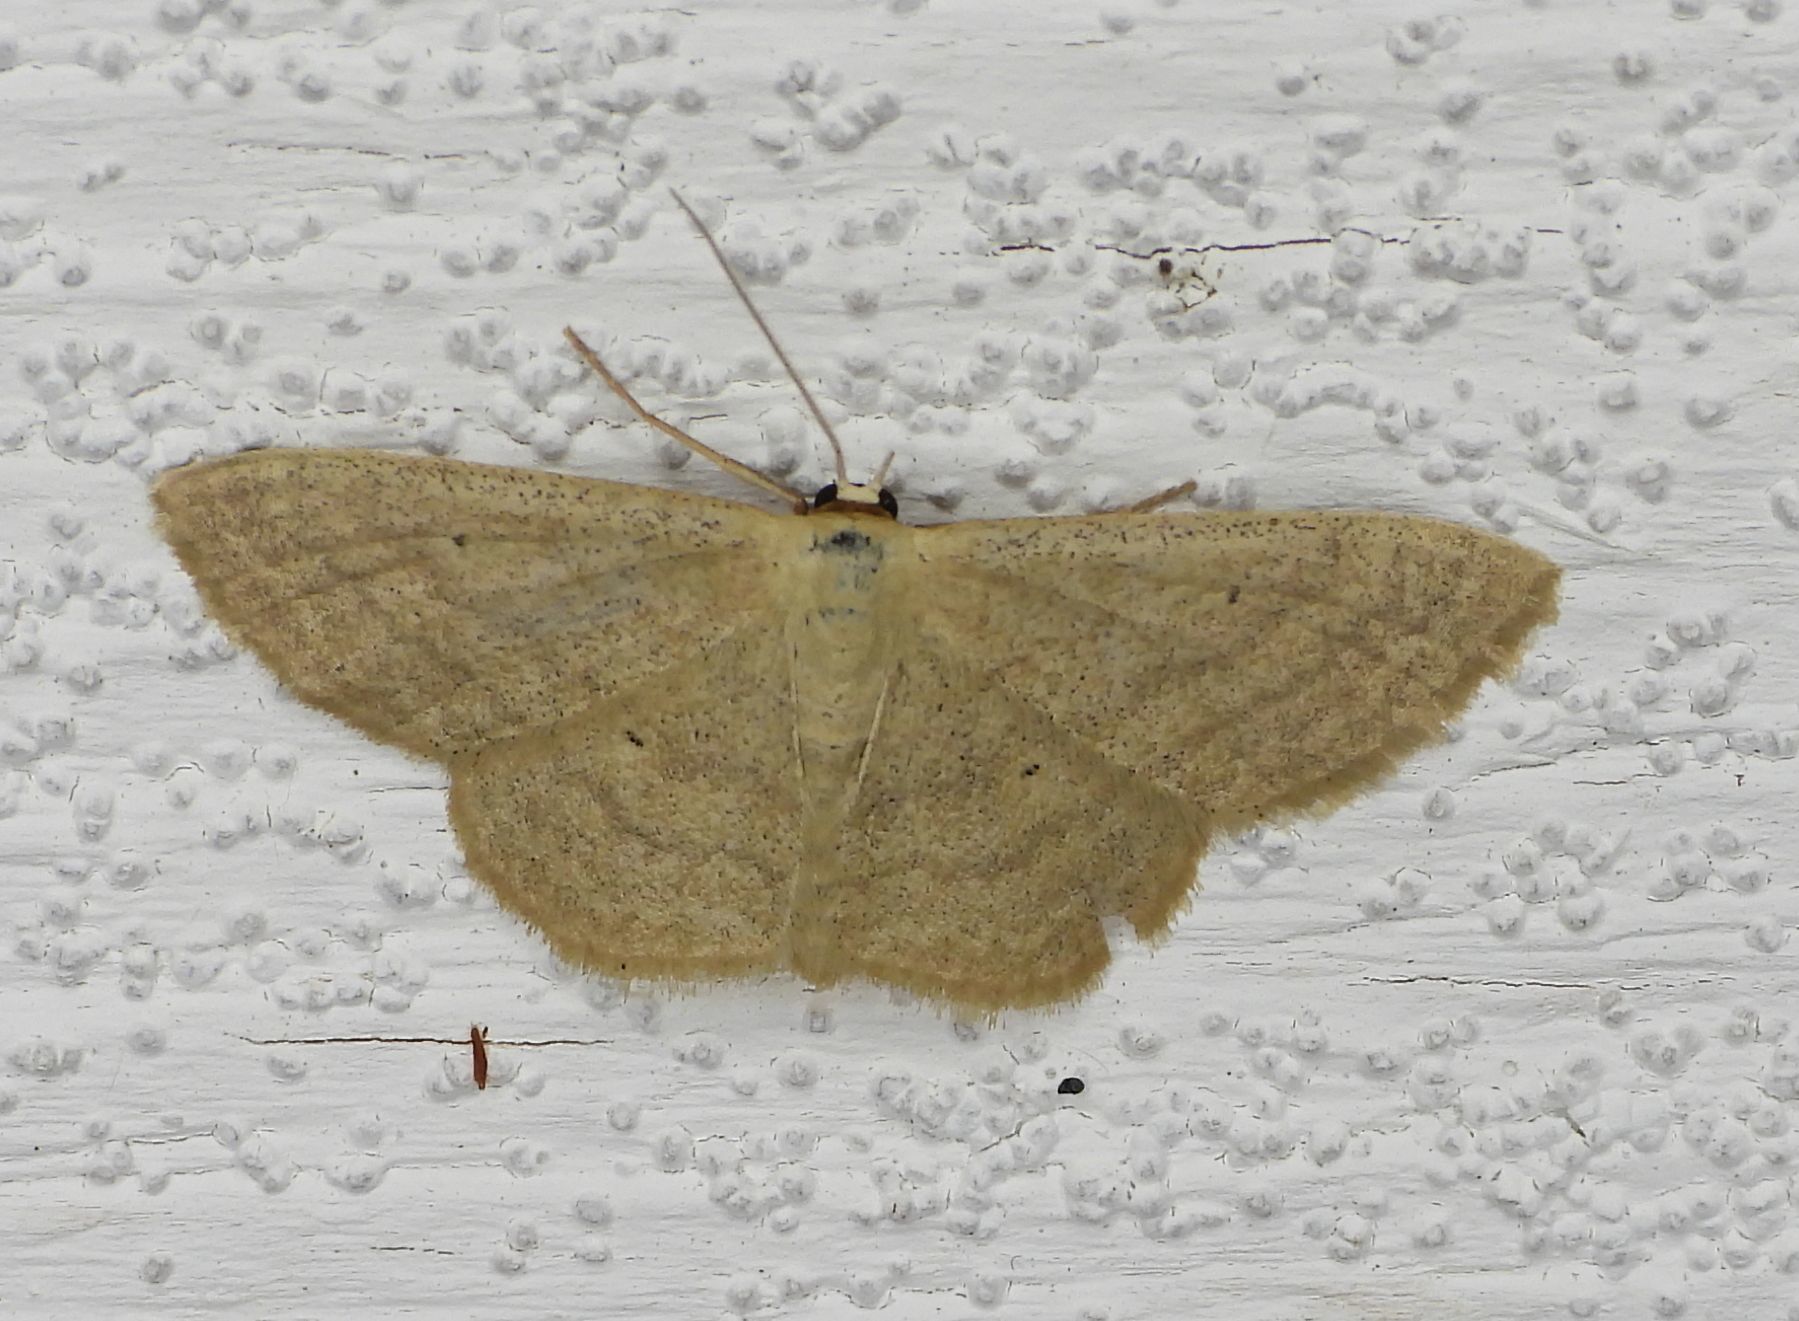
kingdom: Animalia
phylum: Arthropoda
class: Insecta
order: Lepidoptera
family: Geometridae
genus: Scopula
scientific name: Scopula inductata
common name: Soft-lined wave
